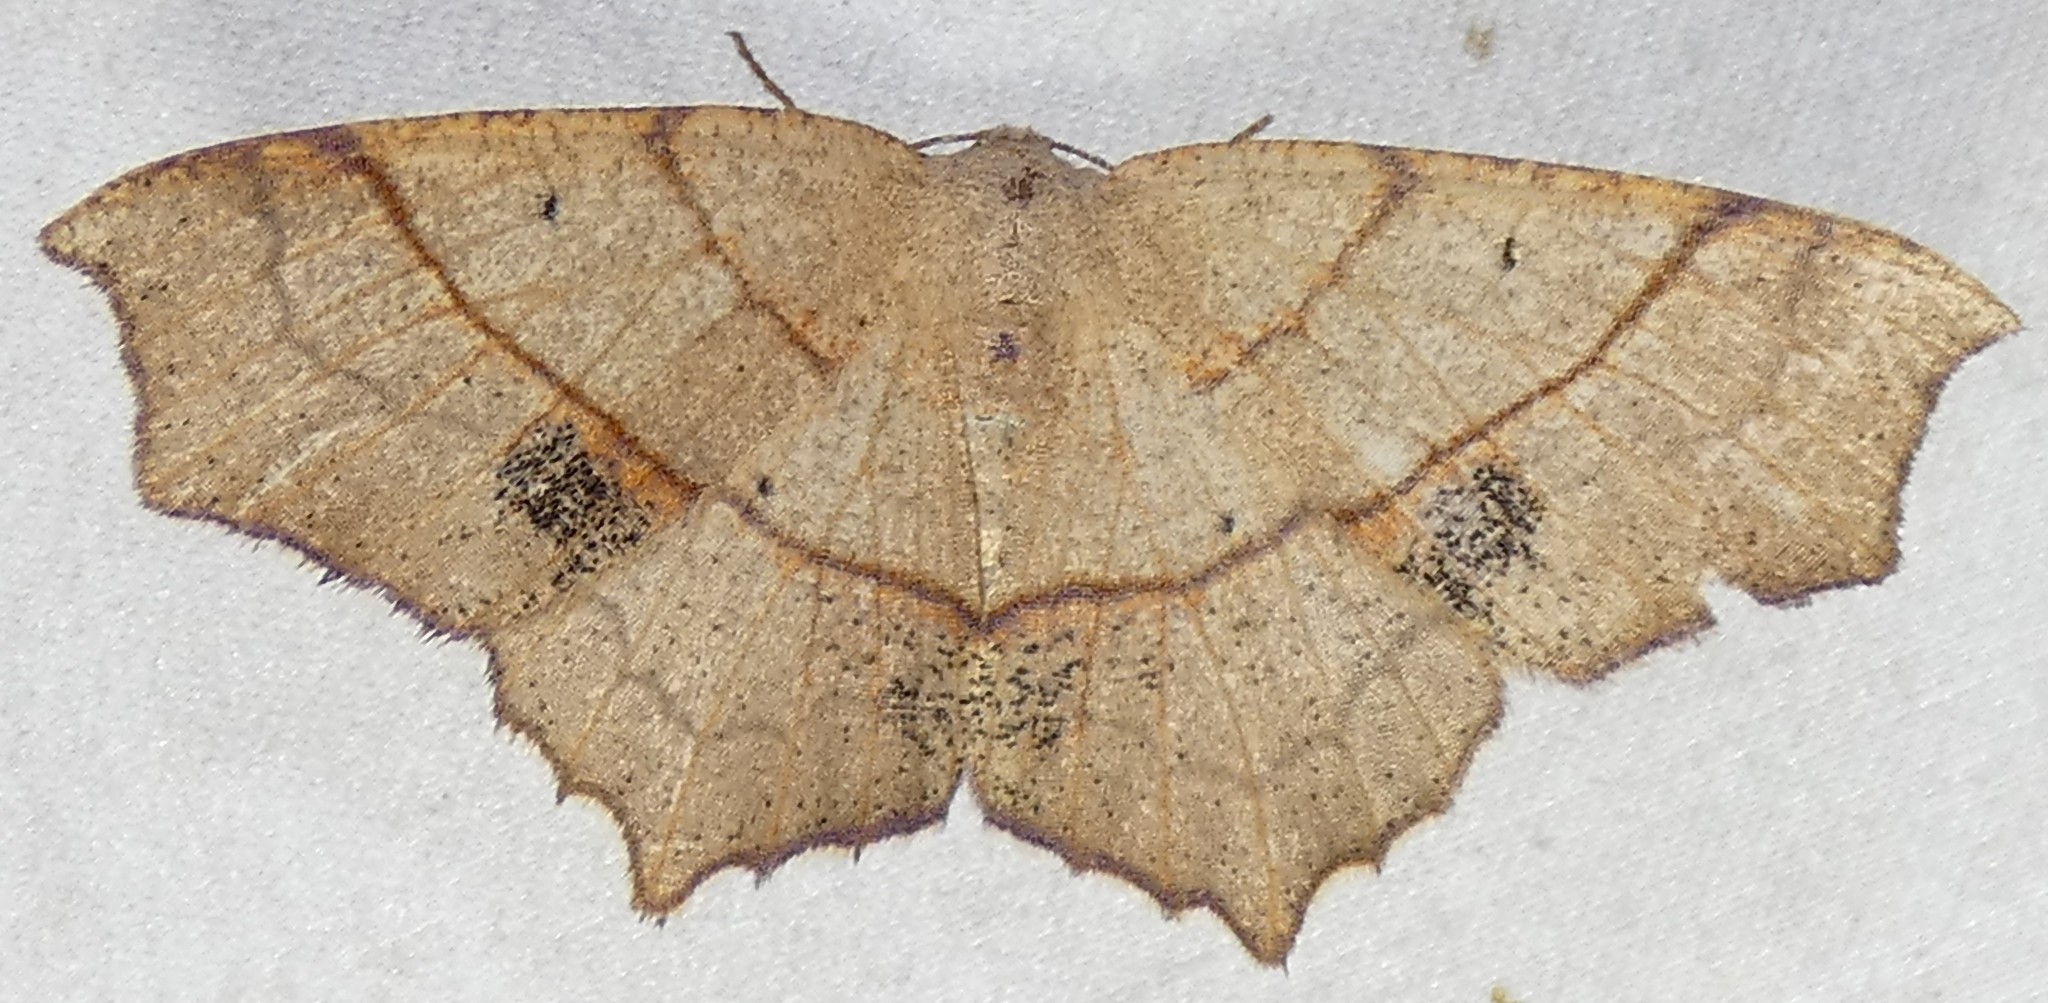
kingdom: Animalia
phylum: Arthropoda
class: Insecta
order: Lepidoptera
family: Geometridae
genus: Besma
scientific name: Besma quercivoraria
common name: Oak besma
